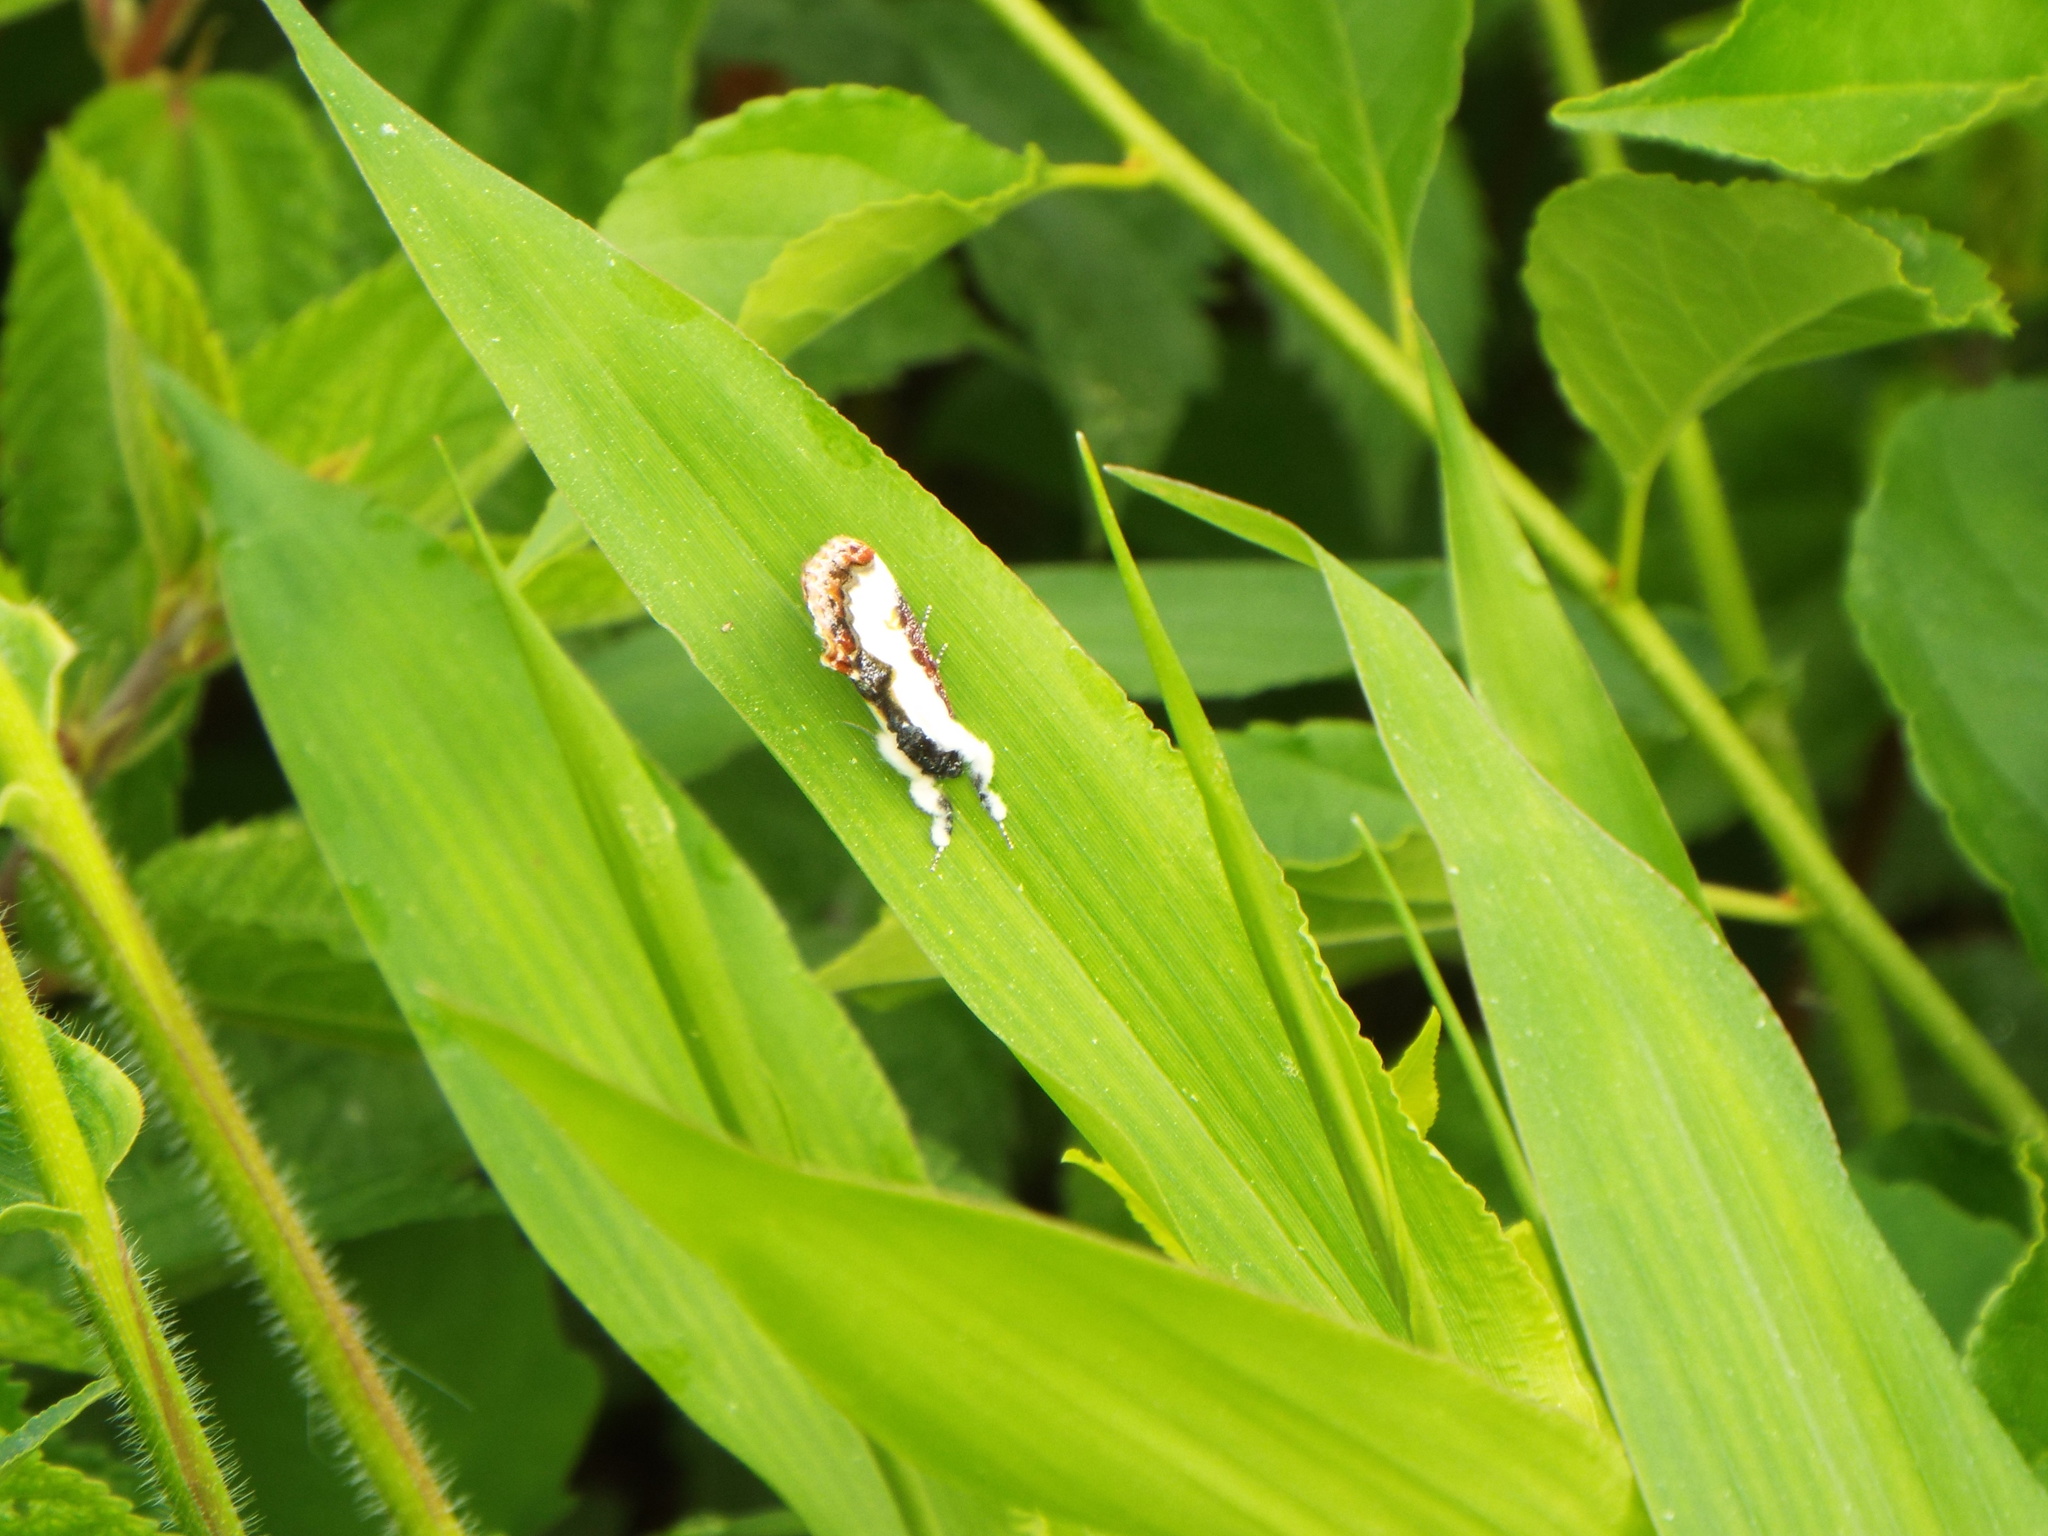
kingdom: Animalia
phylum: Arthropoda
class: Insecta
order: Lepidoptera
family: Noctuidae
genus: Eudryas
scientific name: Eudryas unio
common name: Pearly wood-nymph
